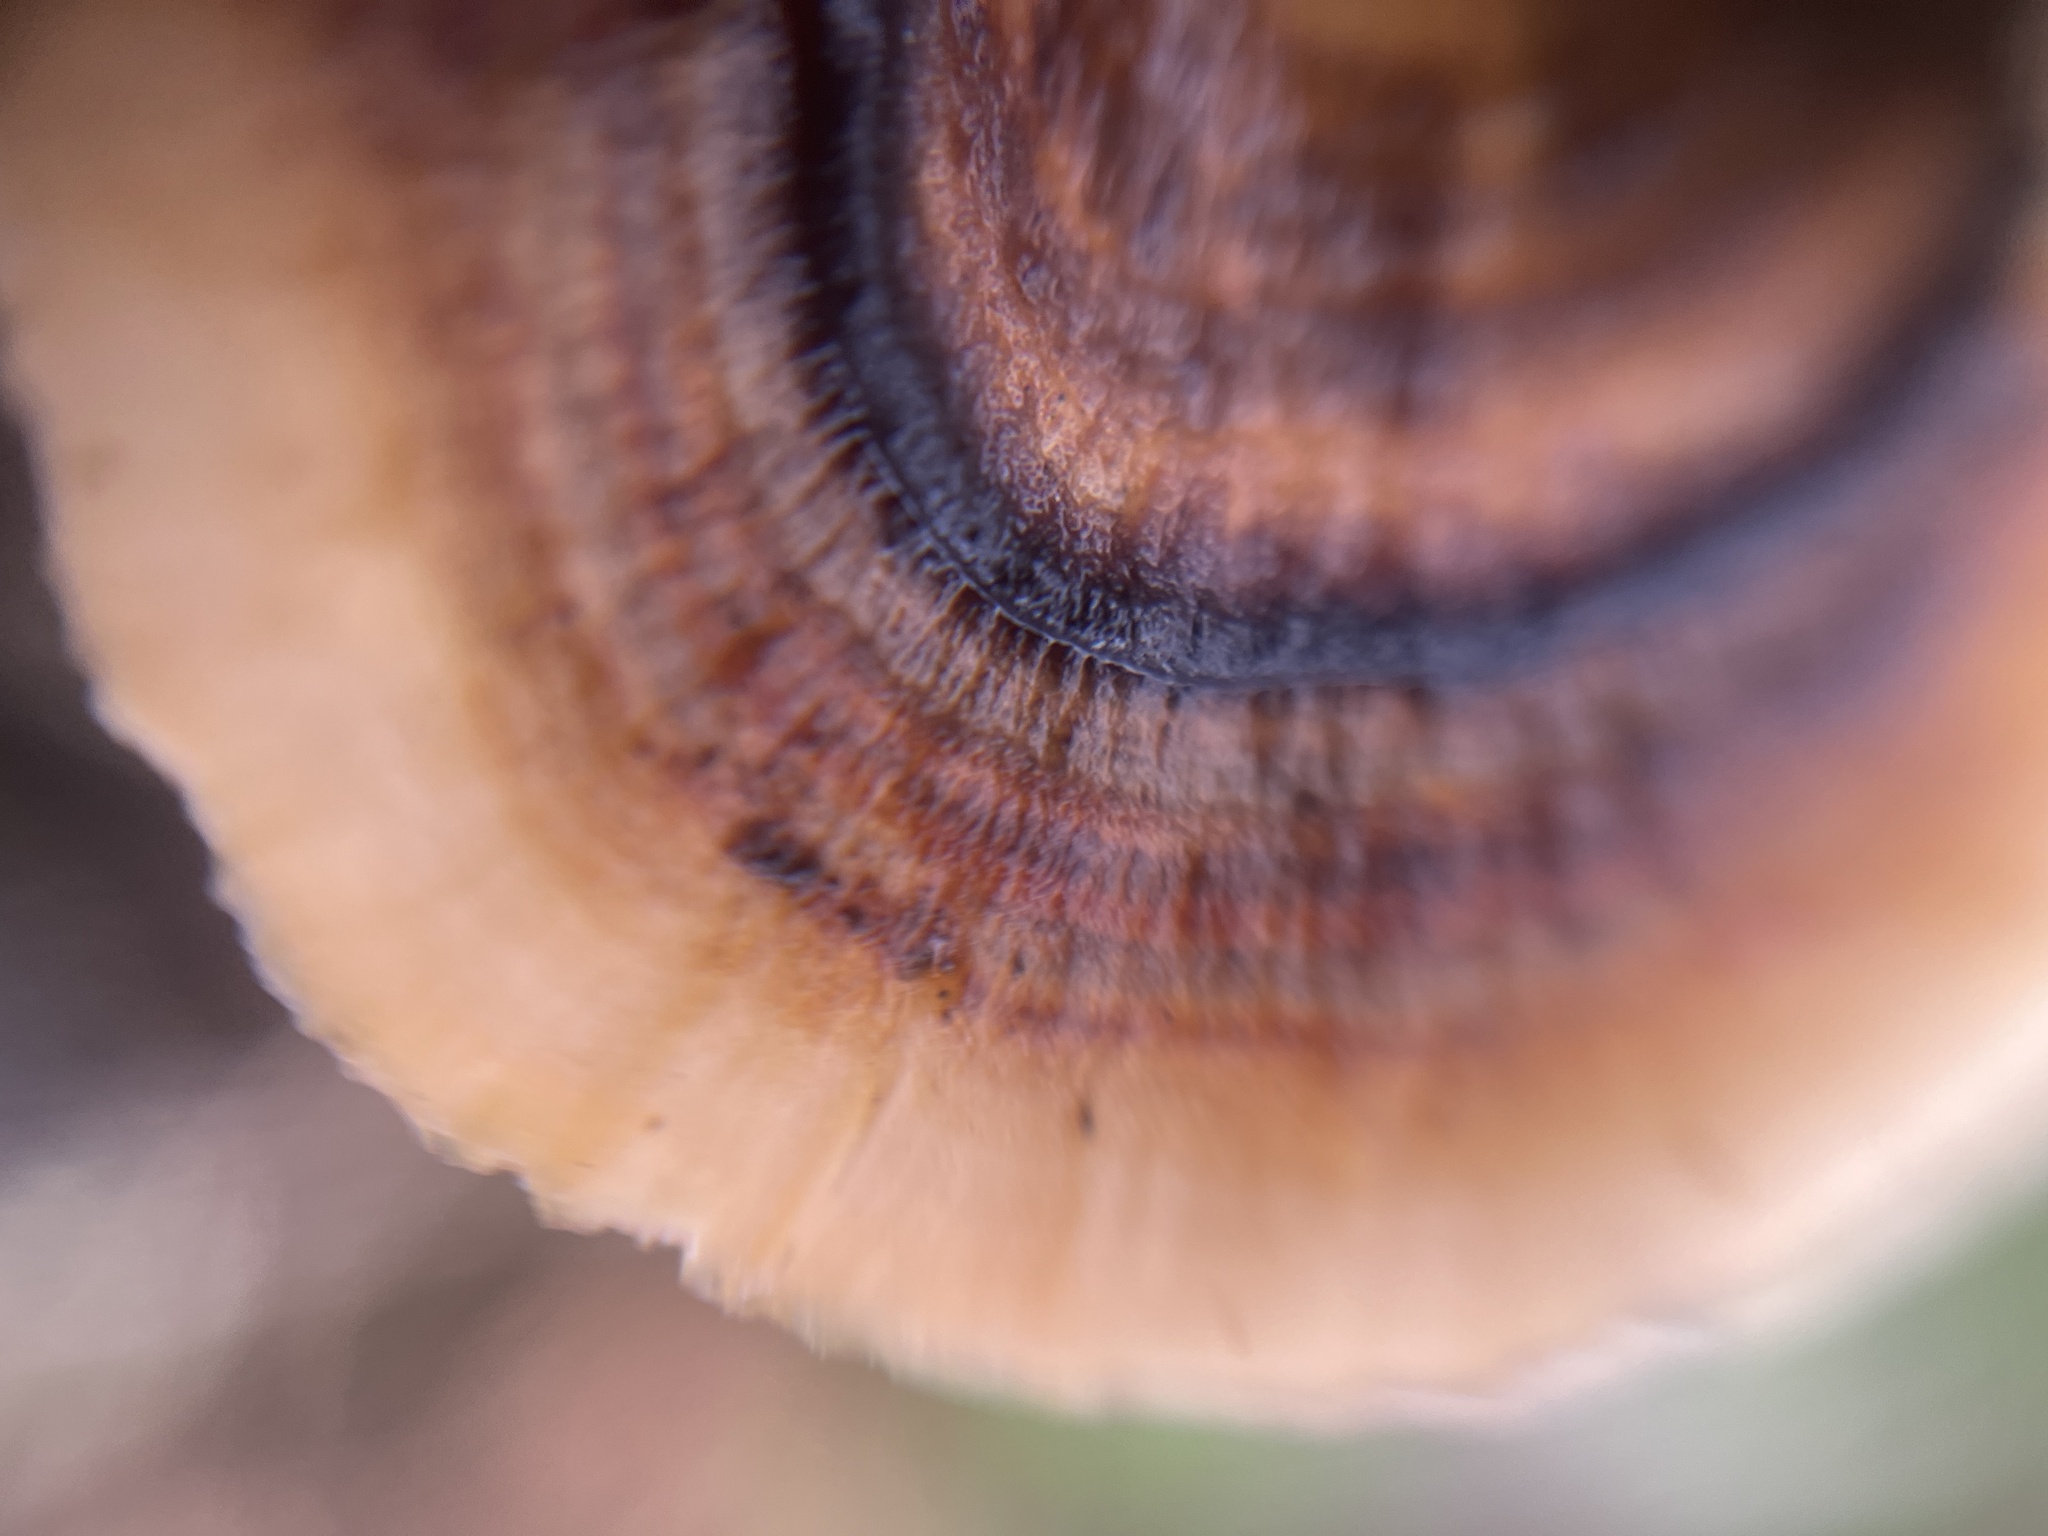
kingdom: Fungi
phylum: Basidiomycota
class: Agaricomycetes
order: Polyporales
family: Polyporaceae
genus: Trametes
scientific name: Trametes versicolor
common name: Turkeytail
